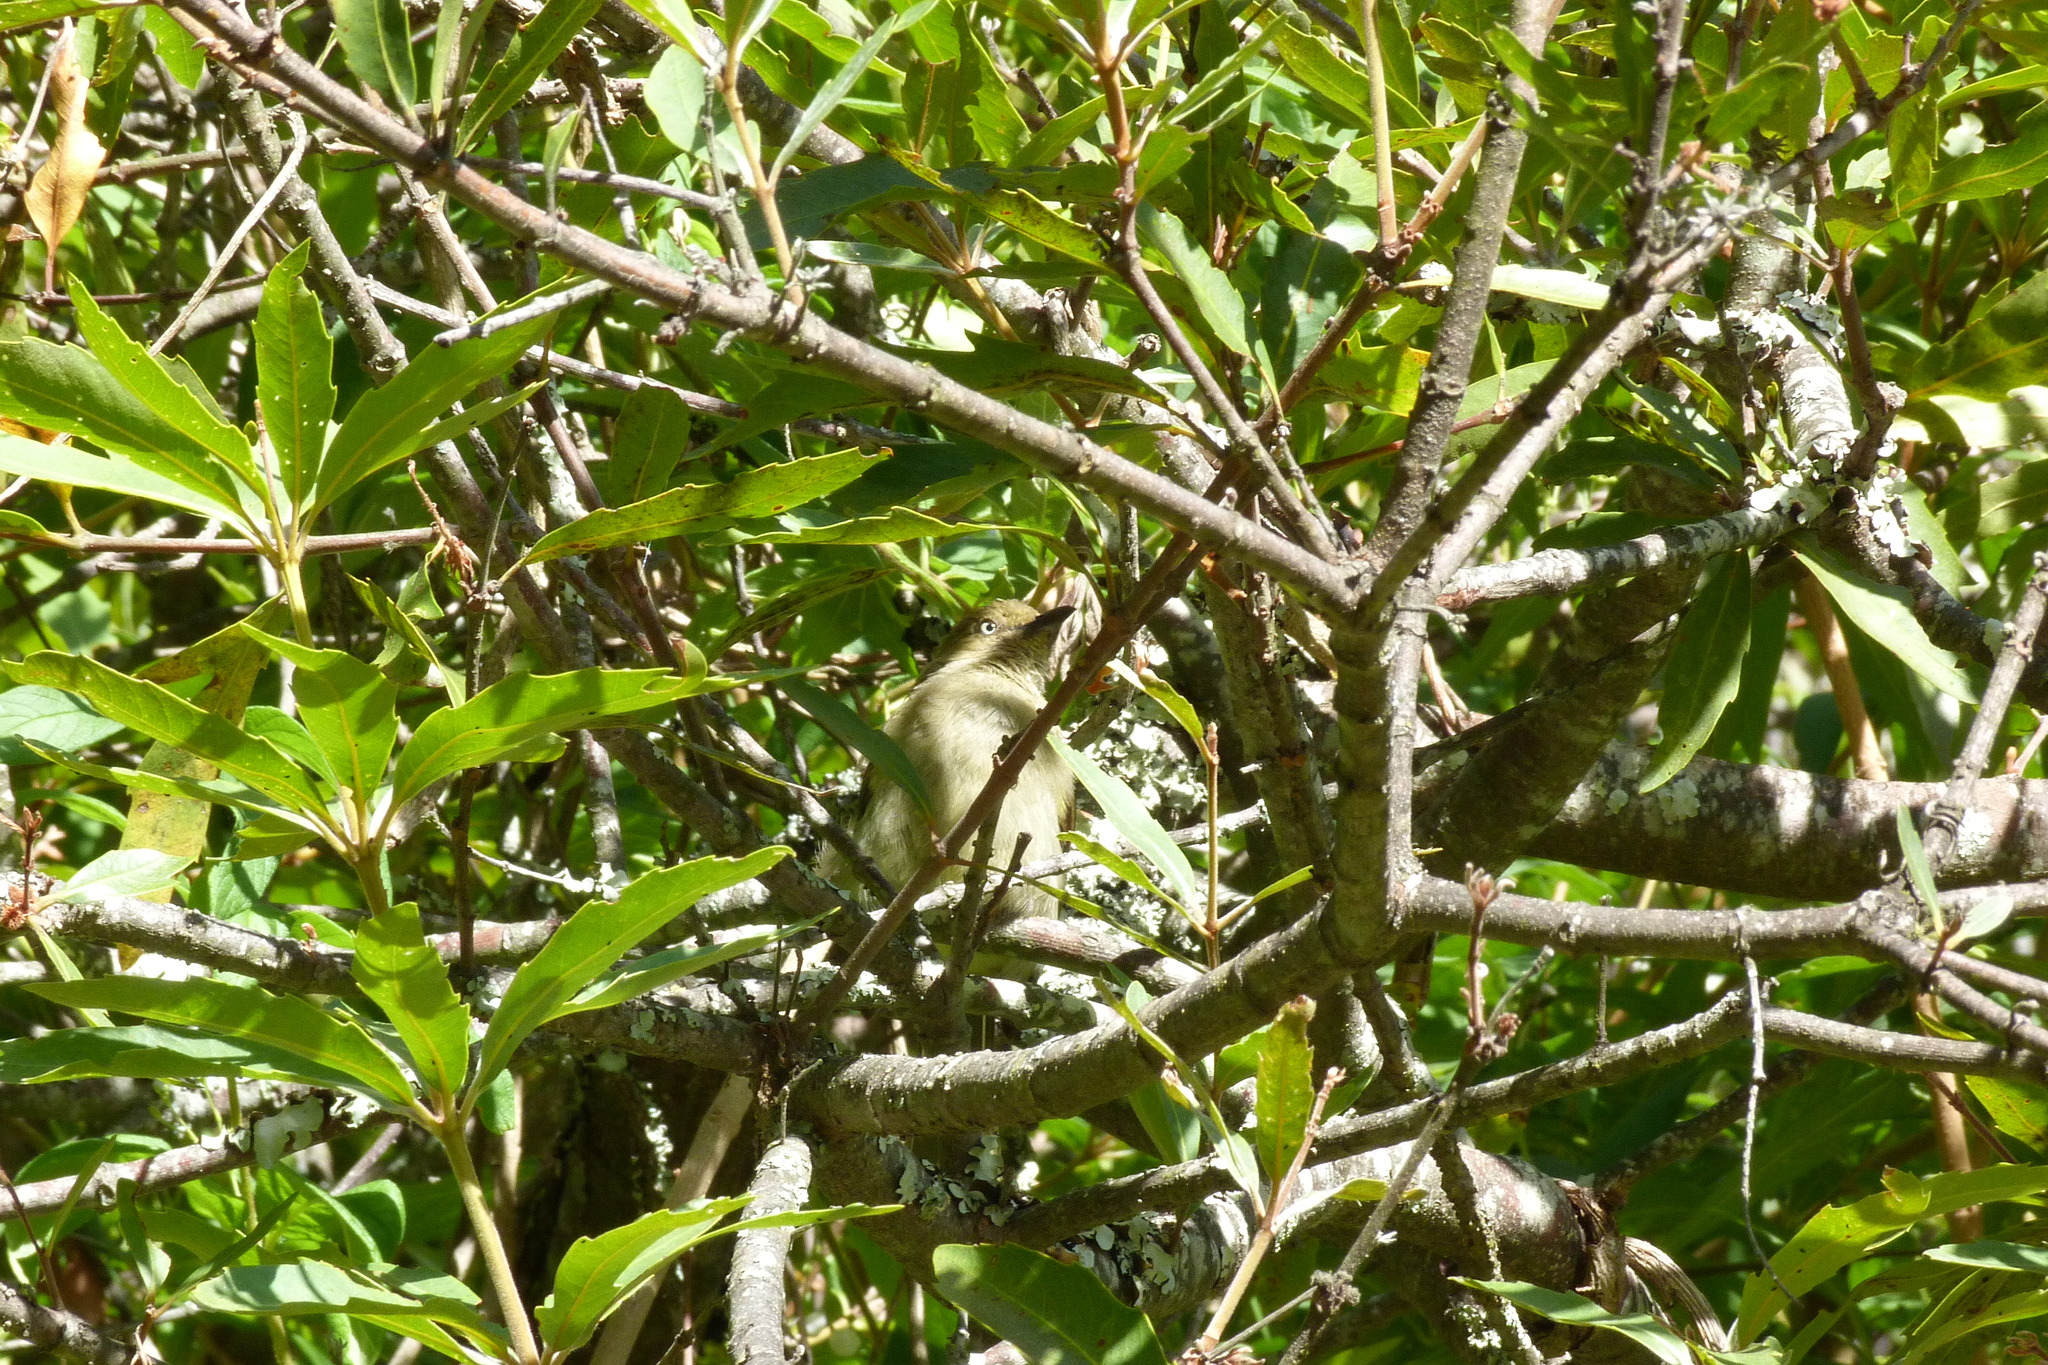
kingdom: Animalia
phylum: Chordata
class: Aves
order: Passeriformes
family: Pycnonotidae
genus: Andropadus
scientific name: Andropadus importunus
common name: Sombre greenbul
